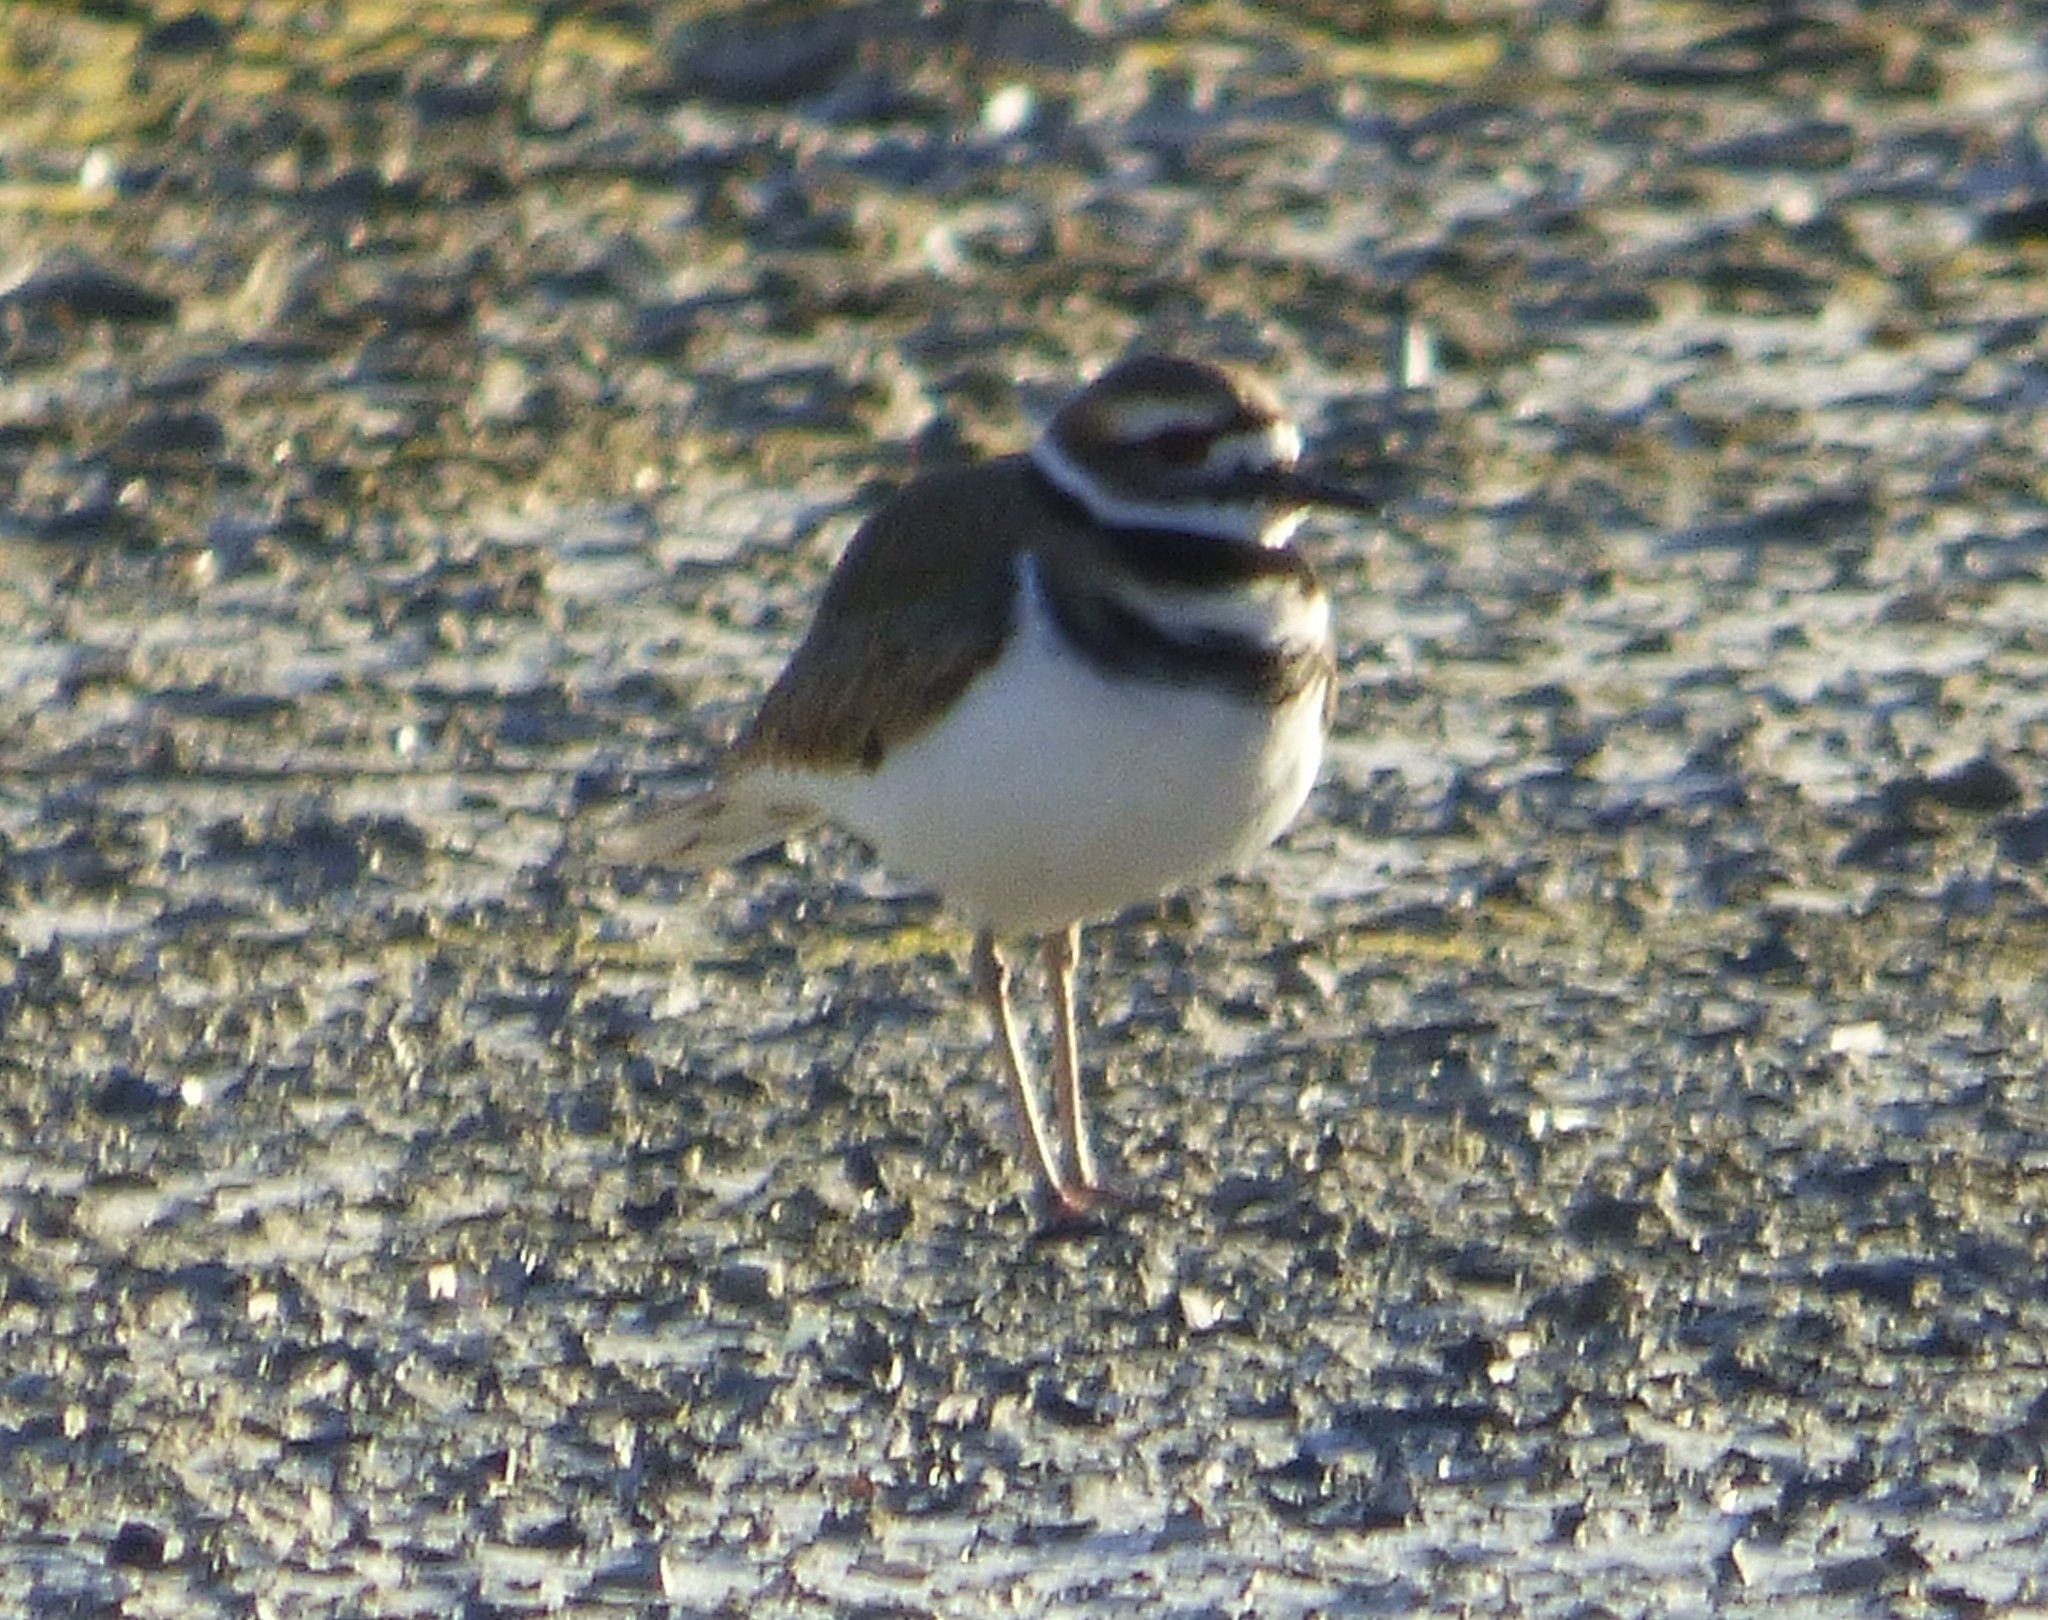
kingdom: Animalia
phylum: Chordata
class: Aves
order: Charadriiformes
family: Charadriidae
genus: Charadrius
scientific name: Charadrius vociferus
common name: Killdeer
